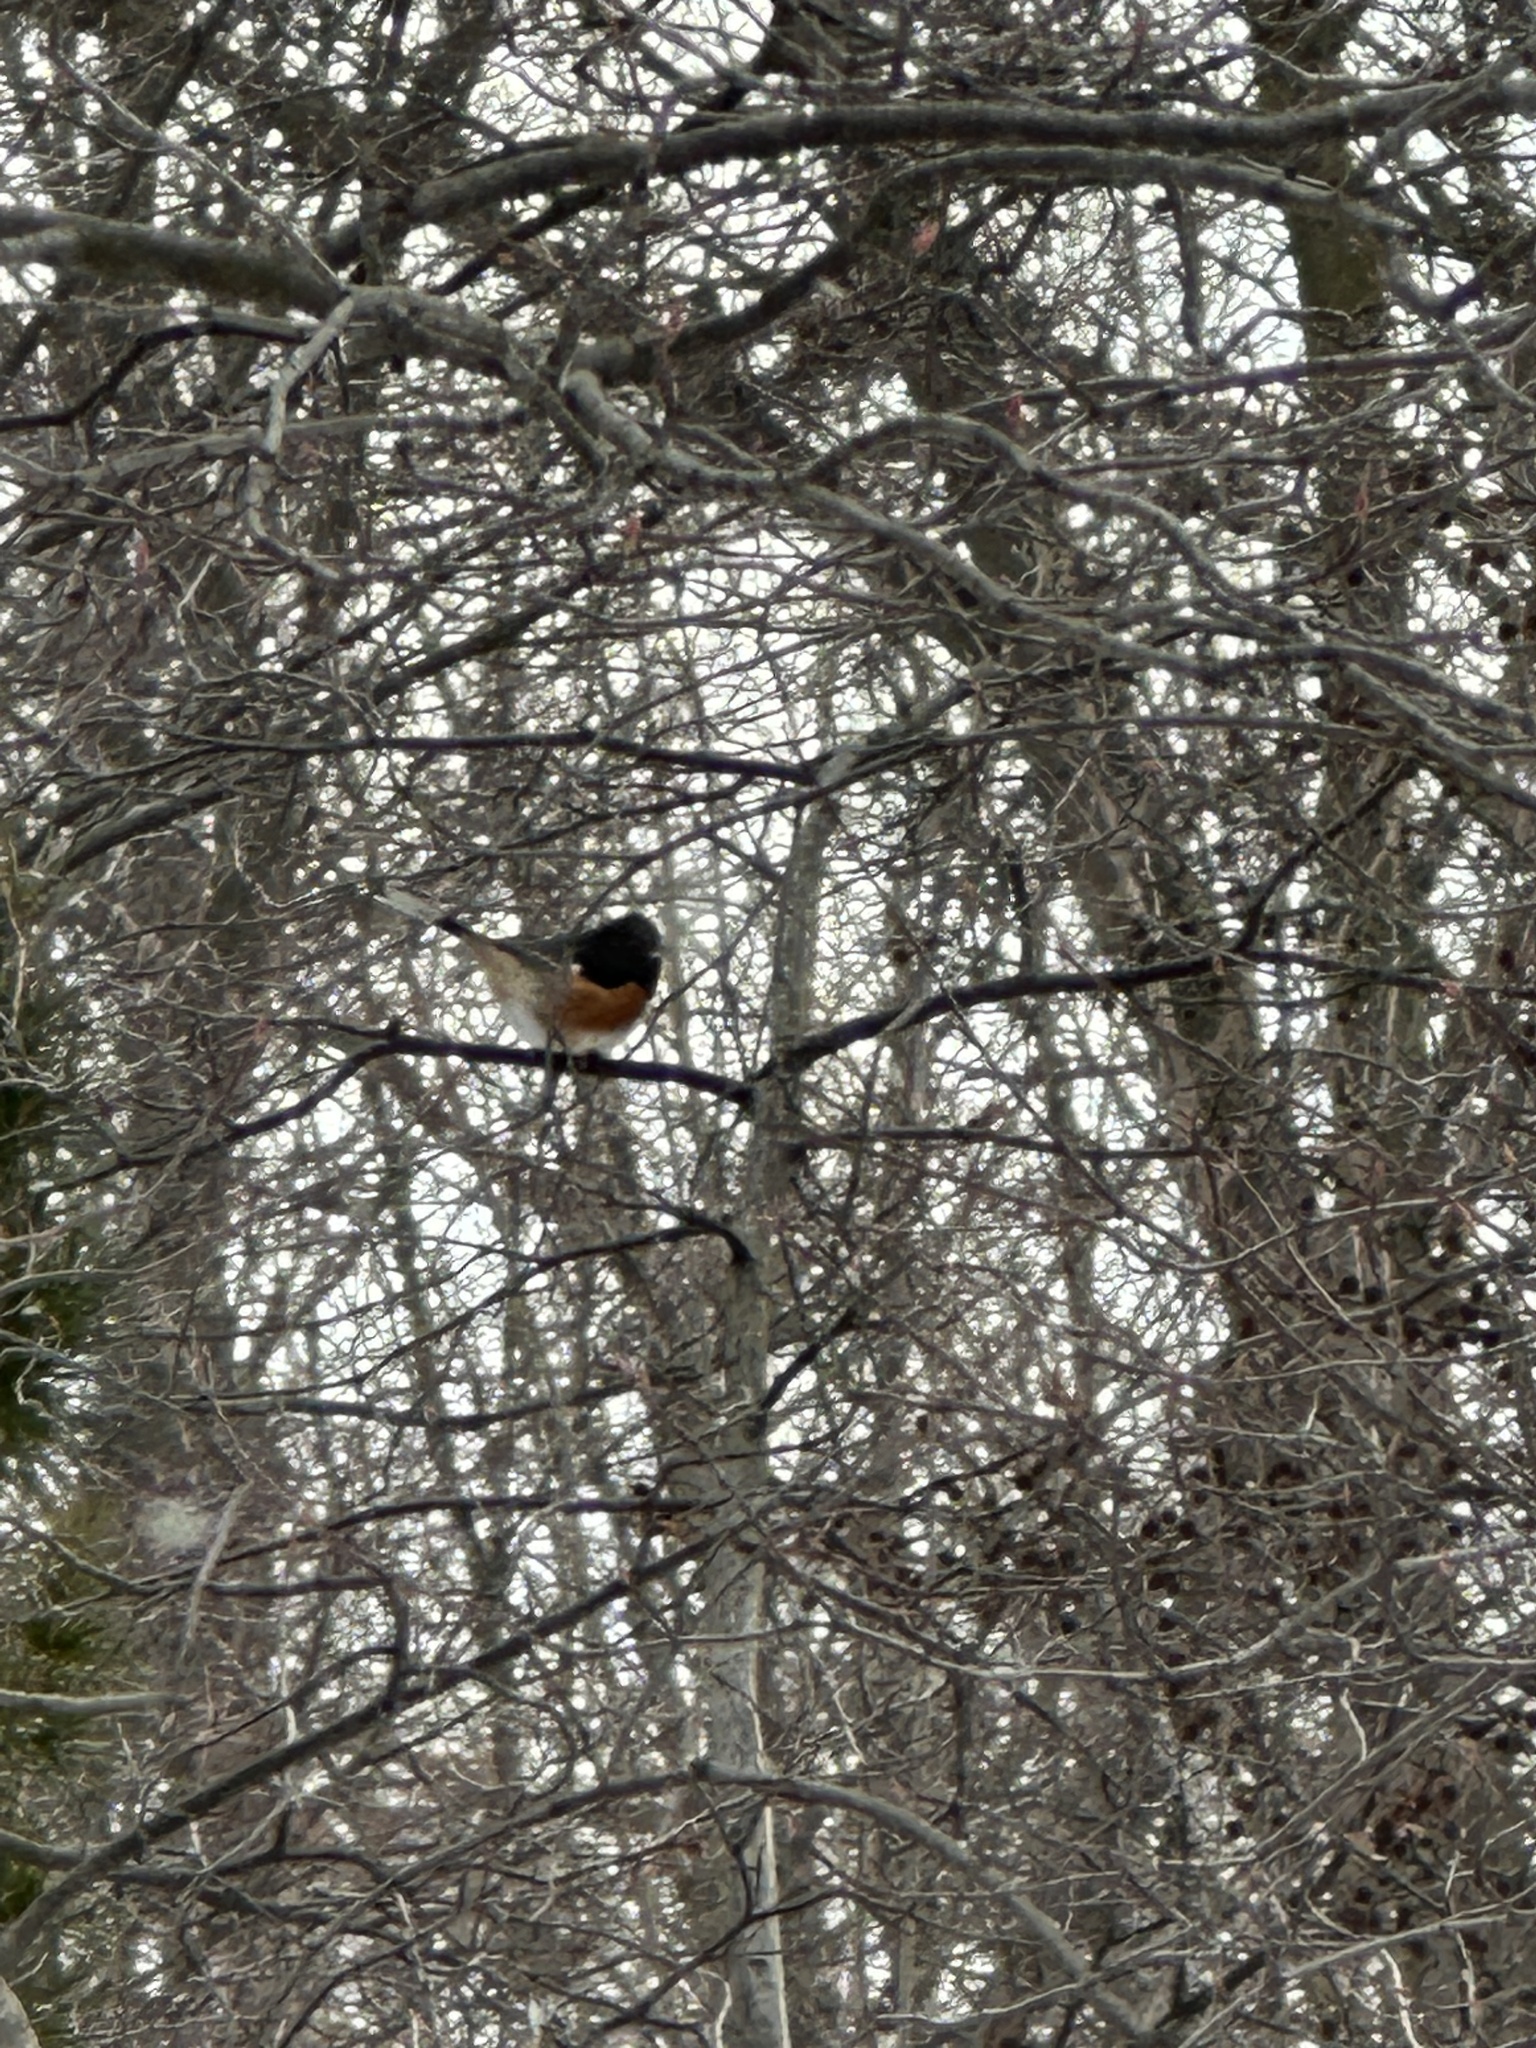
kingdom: Animalia
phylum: Chordata
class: Aves
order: Passeriformes
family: Passerellidae
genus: Pipilo
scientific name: Pipilo erythrophthalmus
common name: Eastern towhee
